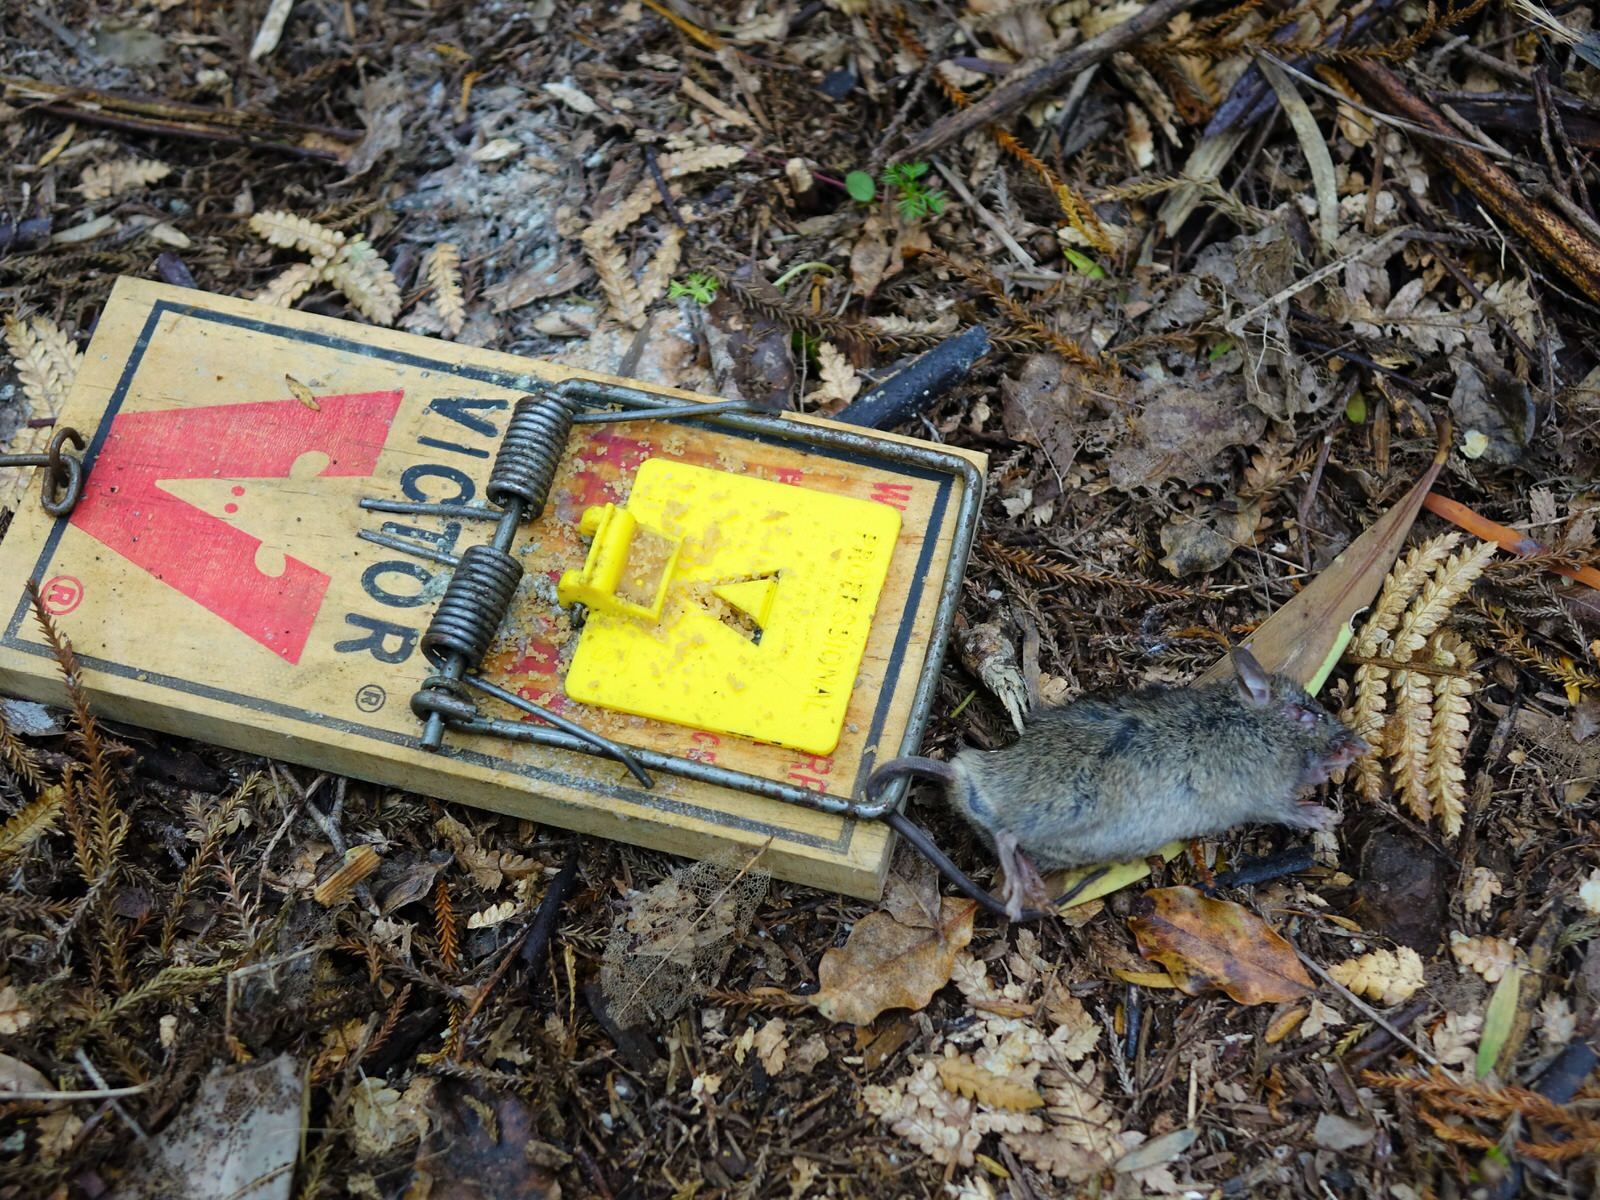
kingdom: Animalia
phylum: Chordata
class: Mammalia
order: Rodentia
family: Muridae
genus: Mus
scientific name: Mus musculus
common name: House mouse
